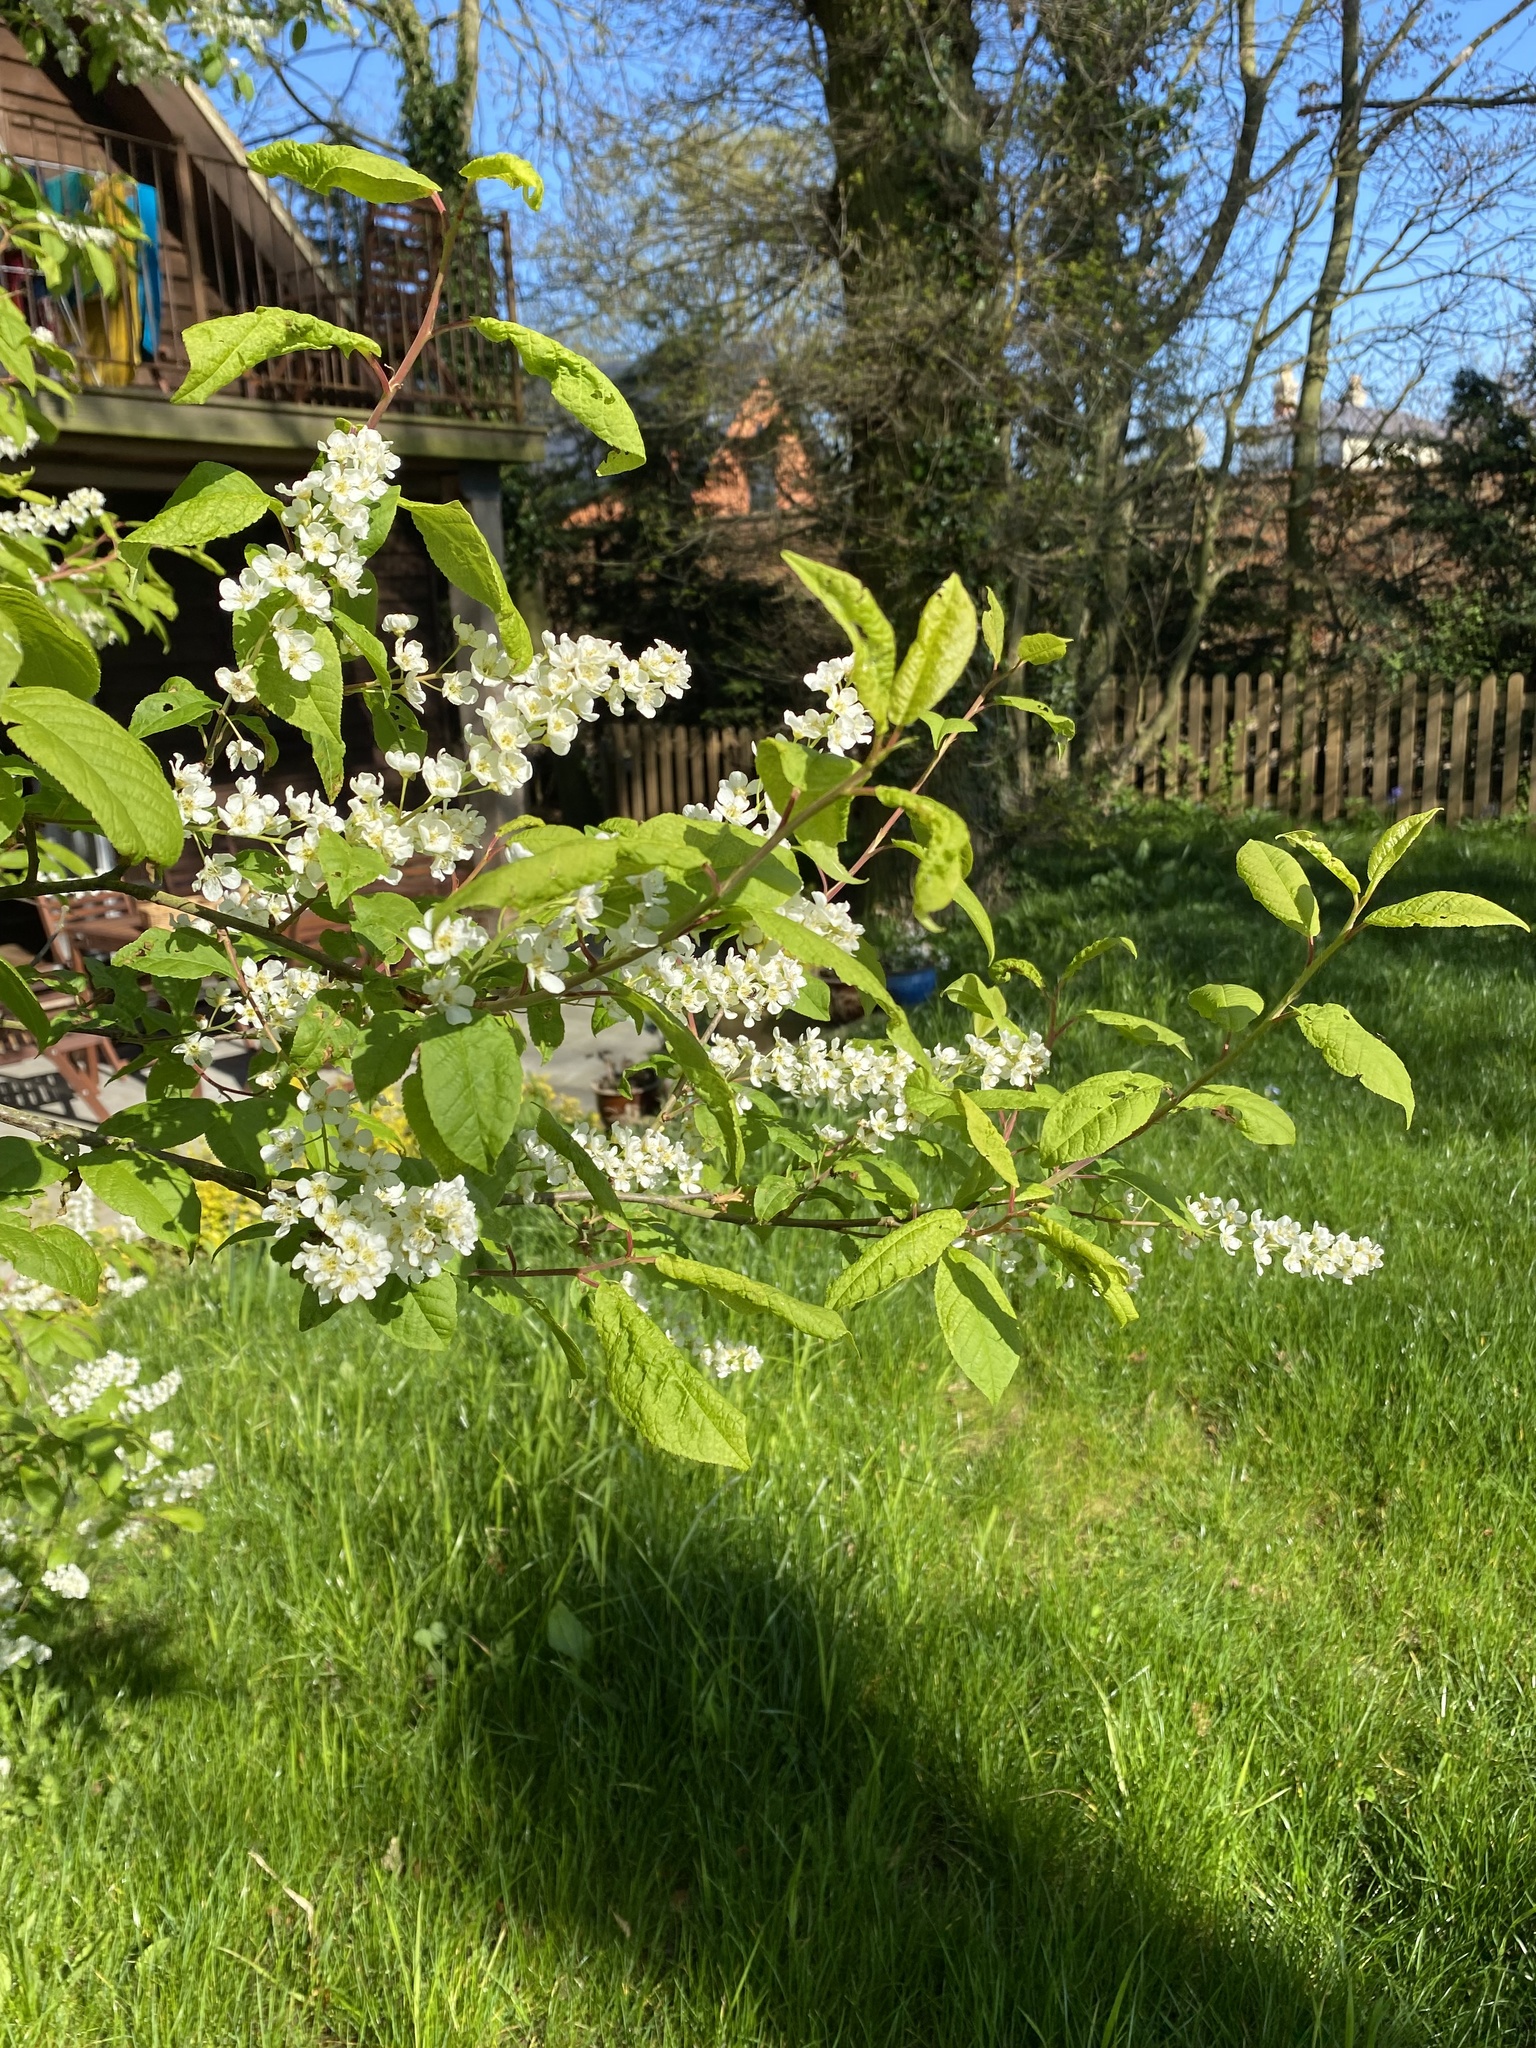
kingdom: Plantae
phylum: Tracheophyta
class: Magnoliopsida
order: Rosales
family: Rosaceae
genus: Prunus
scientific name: Prunus padus
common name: Bird cherry
